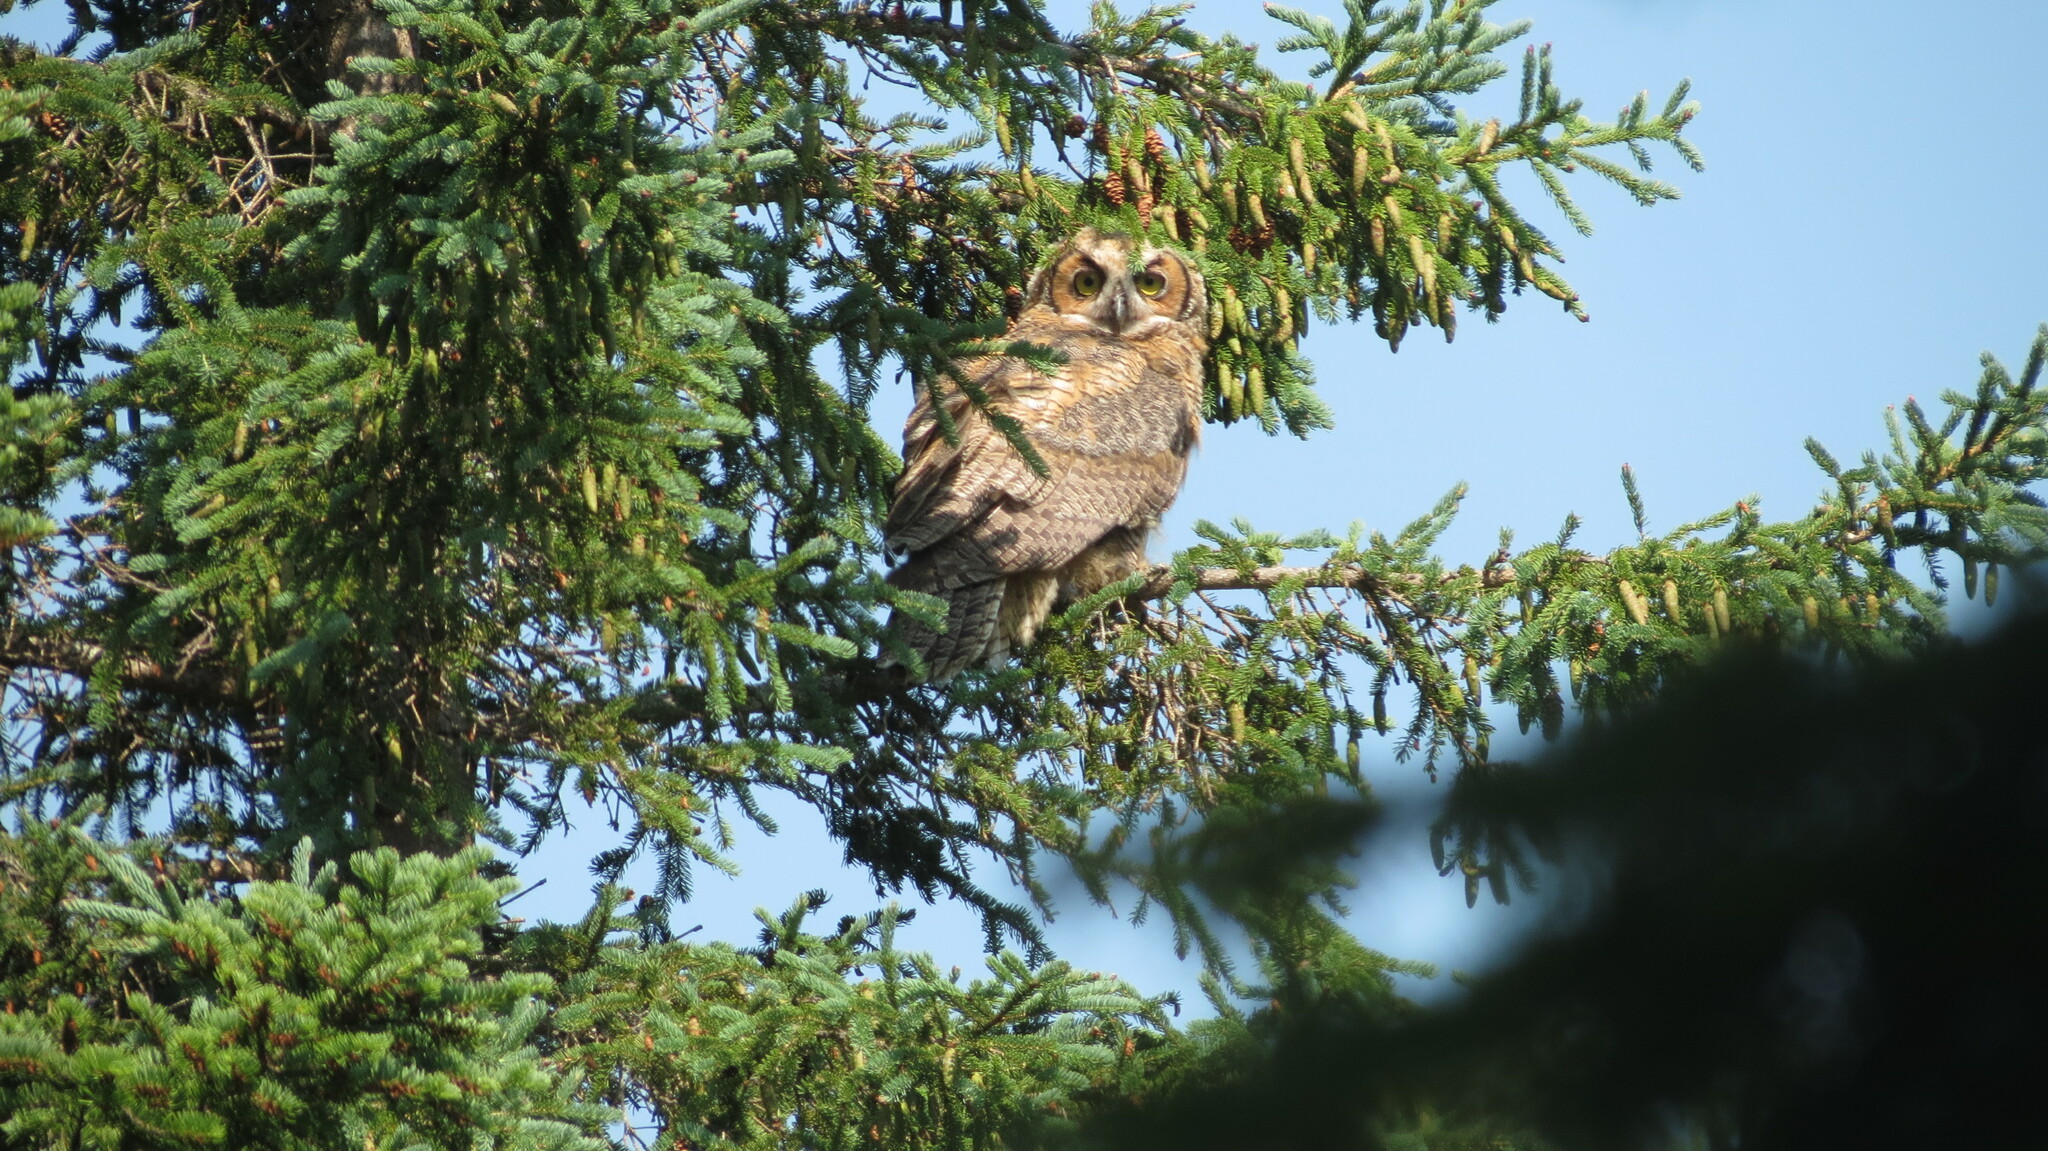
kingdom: Animalia
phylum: Chordata
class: Aves
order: Strigiformes
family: Strigidae
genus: Bubo
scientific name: Bubo virginianus
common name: Great horned owl
